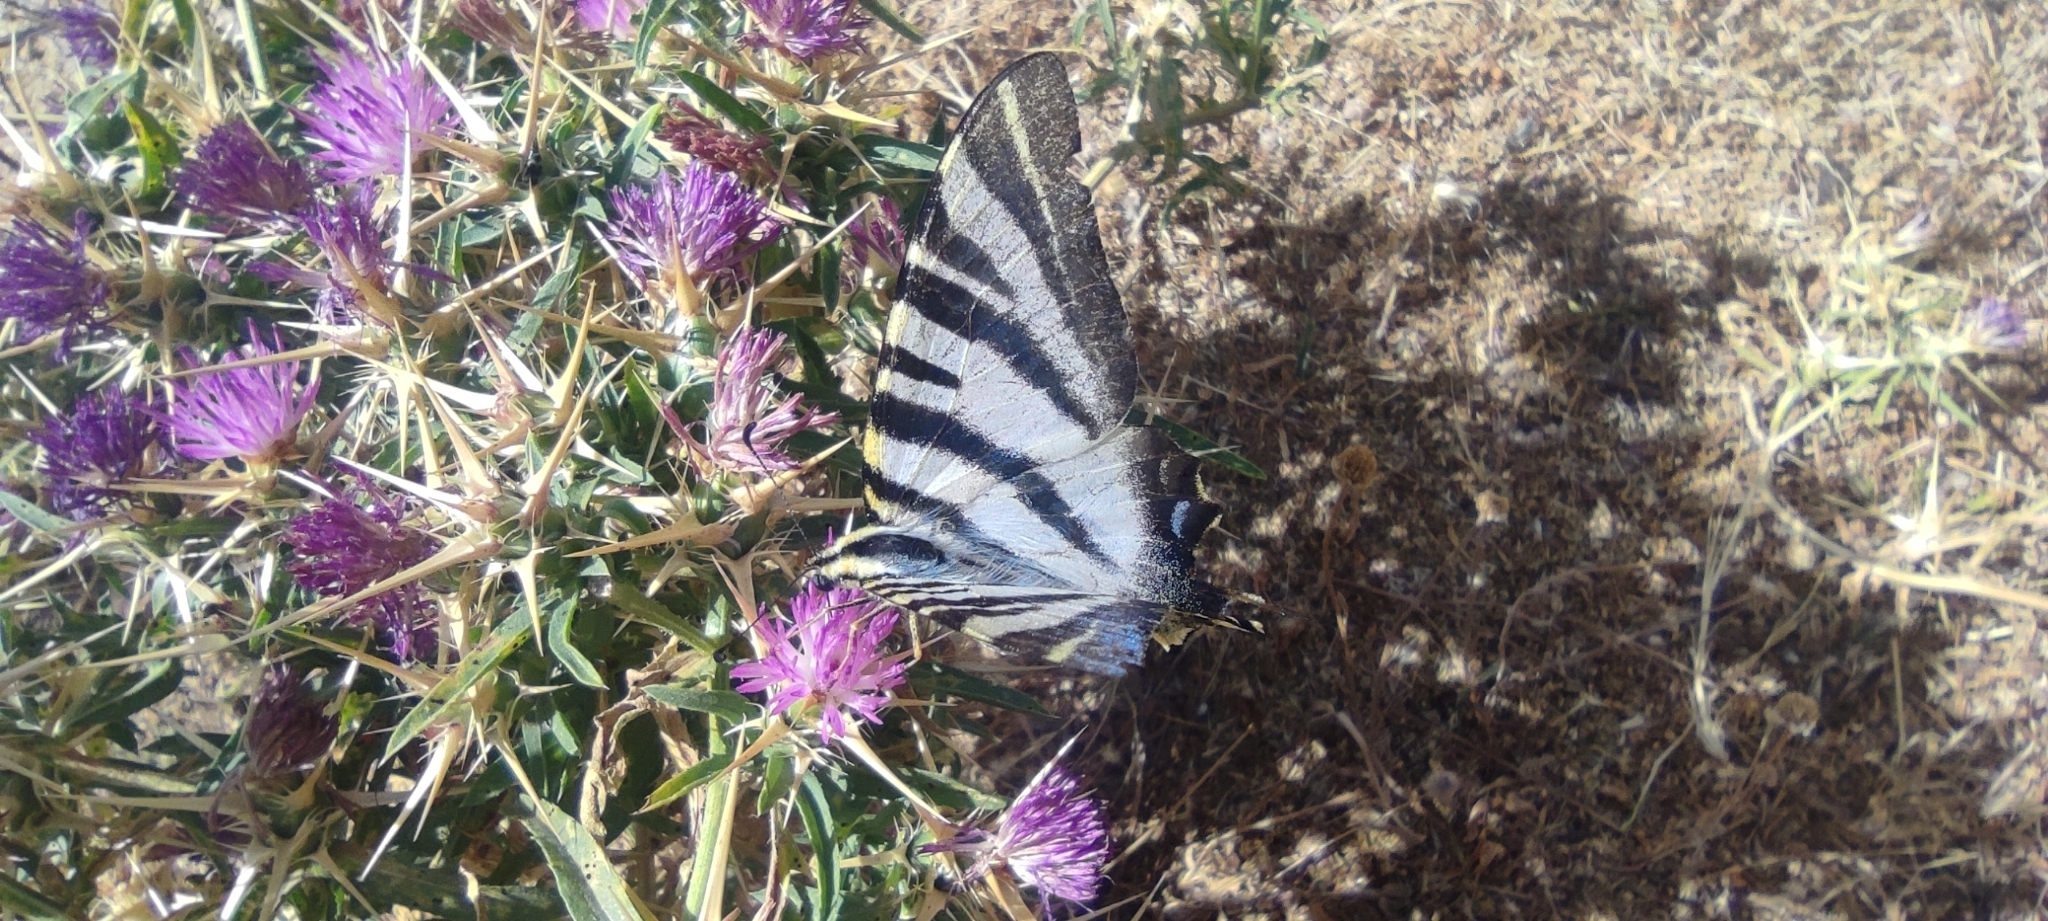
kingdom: Animalia
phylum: Arthropoda
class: Insecta
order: Lepidoptera
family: Papilionidae
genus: Iphiclides
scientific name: Iphiclides feisthamelii
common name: Iberian scarce swallowtail
